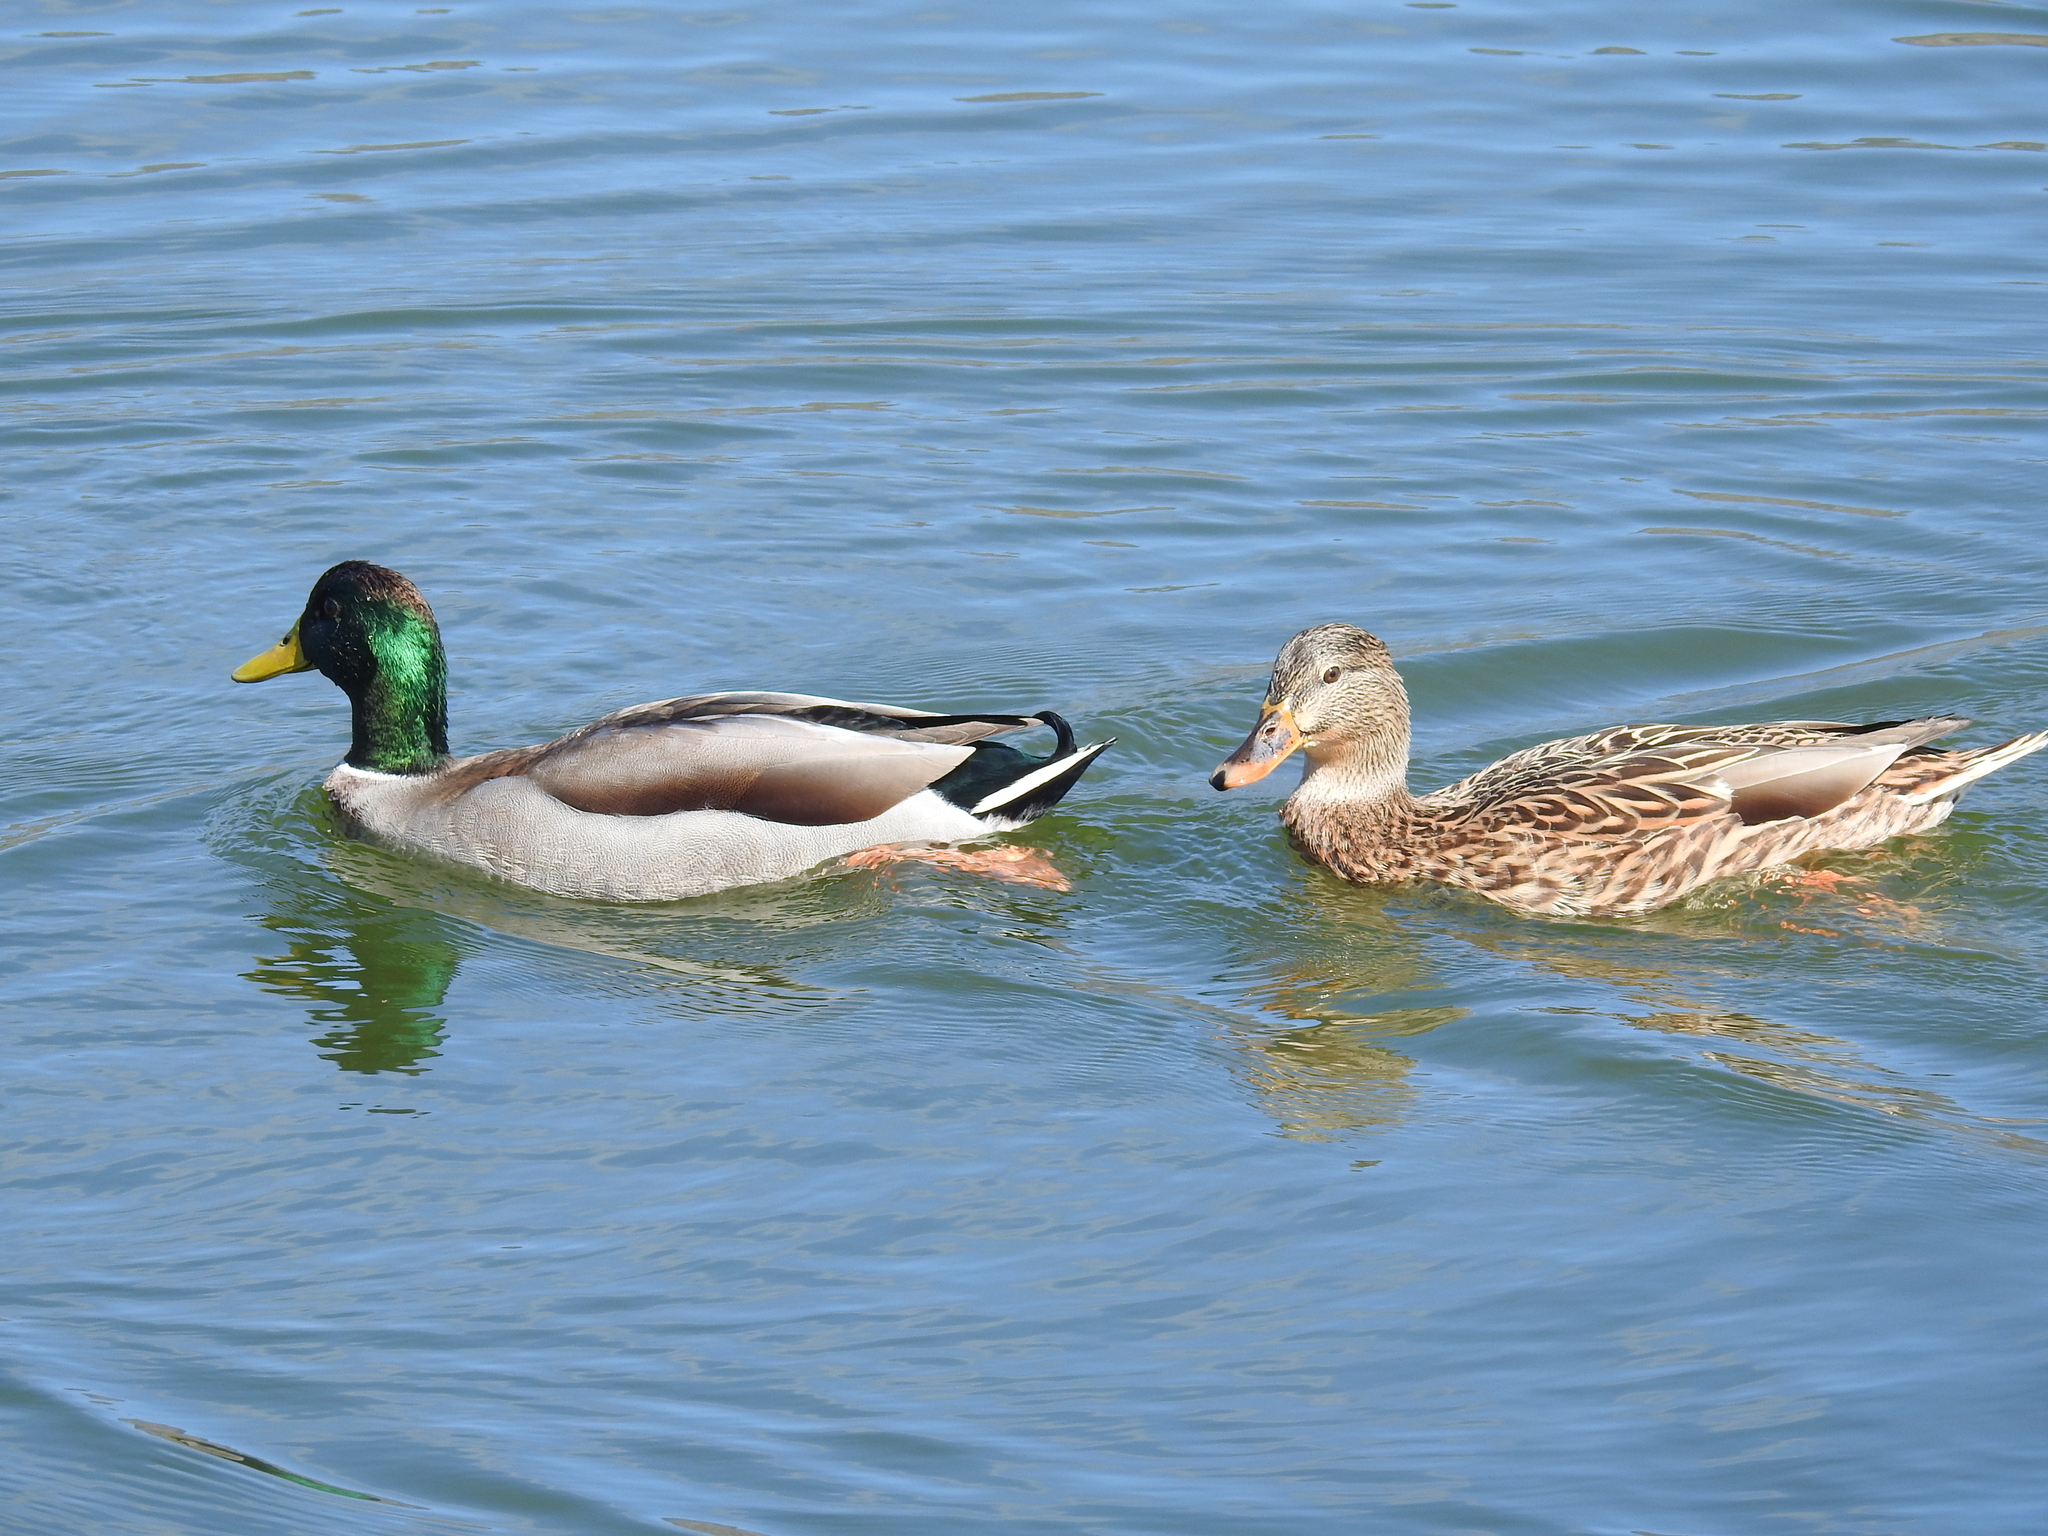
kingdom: Animalia
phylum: Chordata
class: Aves
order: Anseriformes
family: Anatidae
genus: Anas
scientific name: Anas platyrhynchos
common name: Mallard
